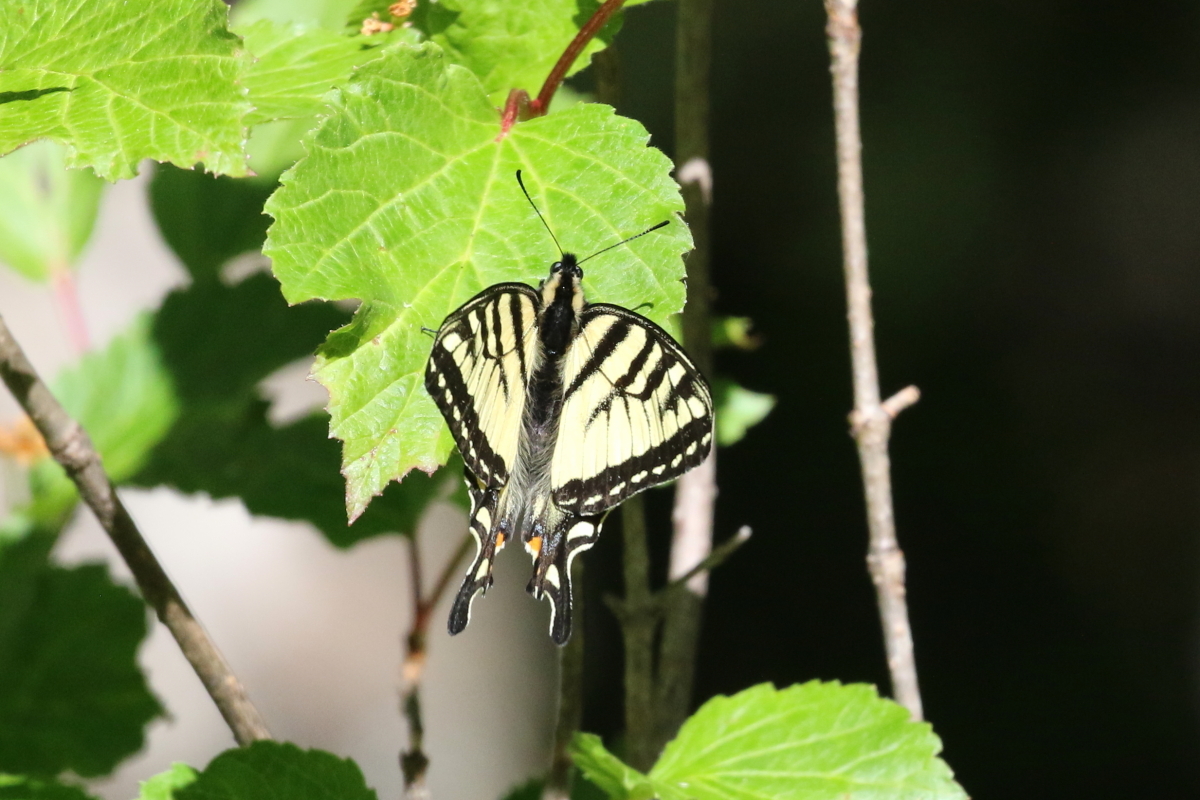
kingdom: Animalia
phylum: Arthropoda
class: Insecta
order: Lepidoptera
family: Papilionidae
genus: Papilio
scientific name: Papilio canadensis
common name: Canadian tiger swallowtail
